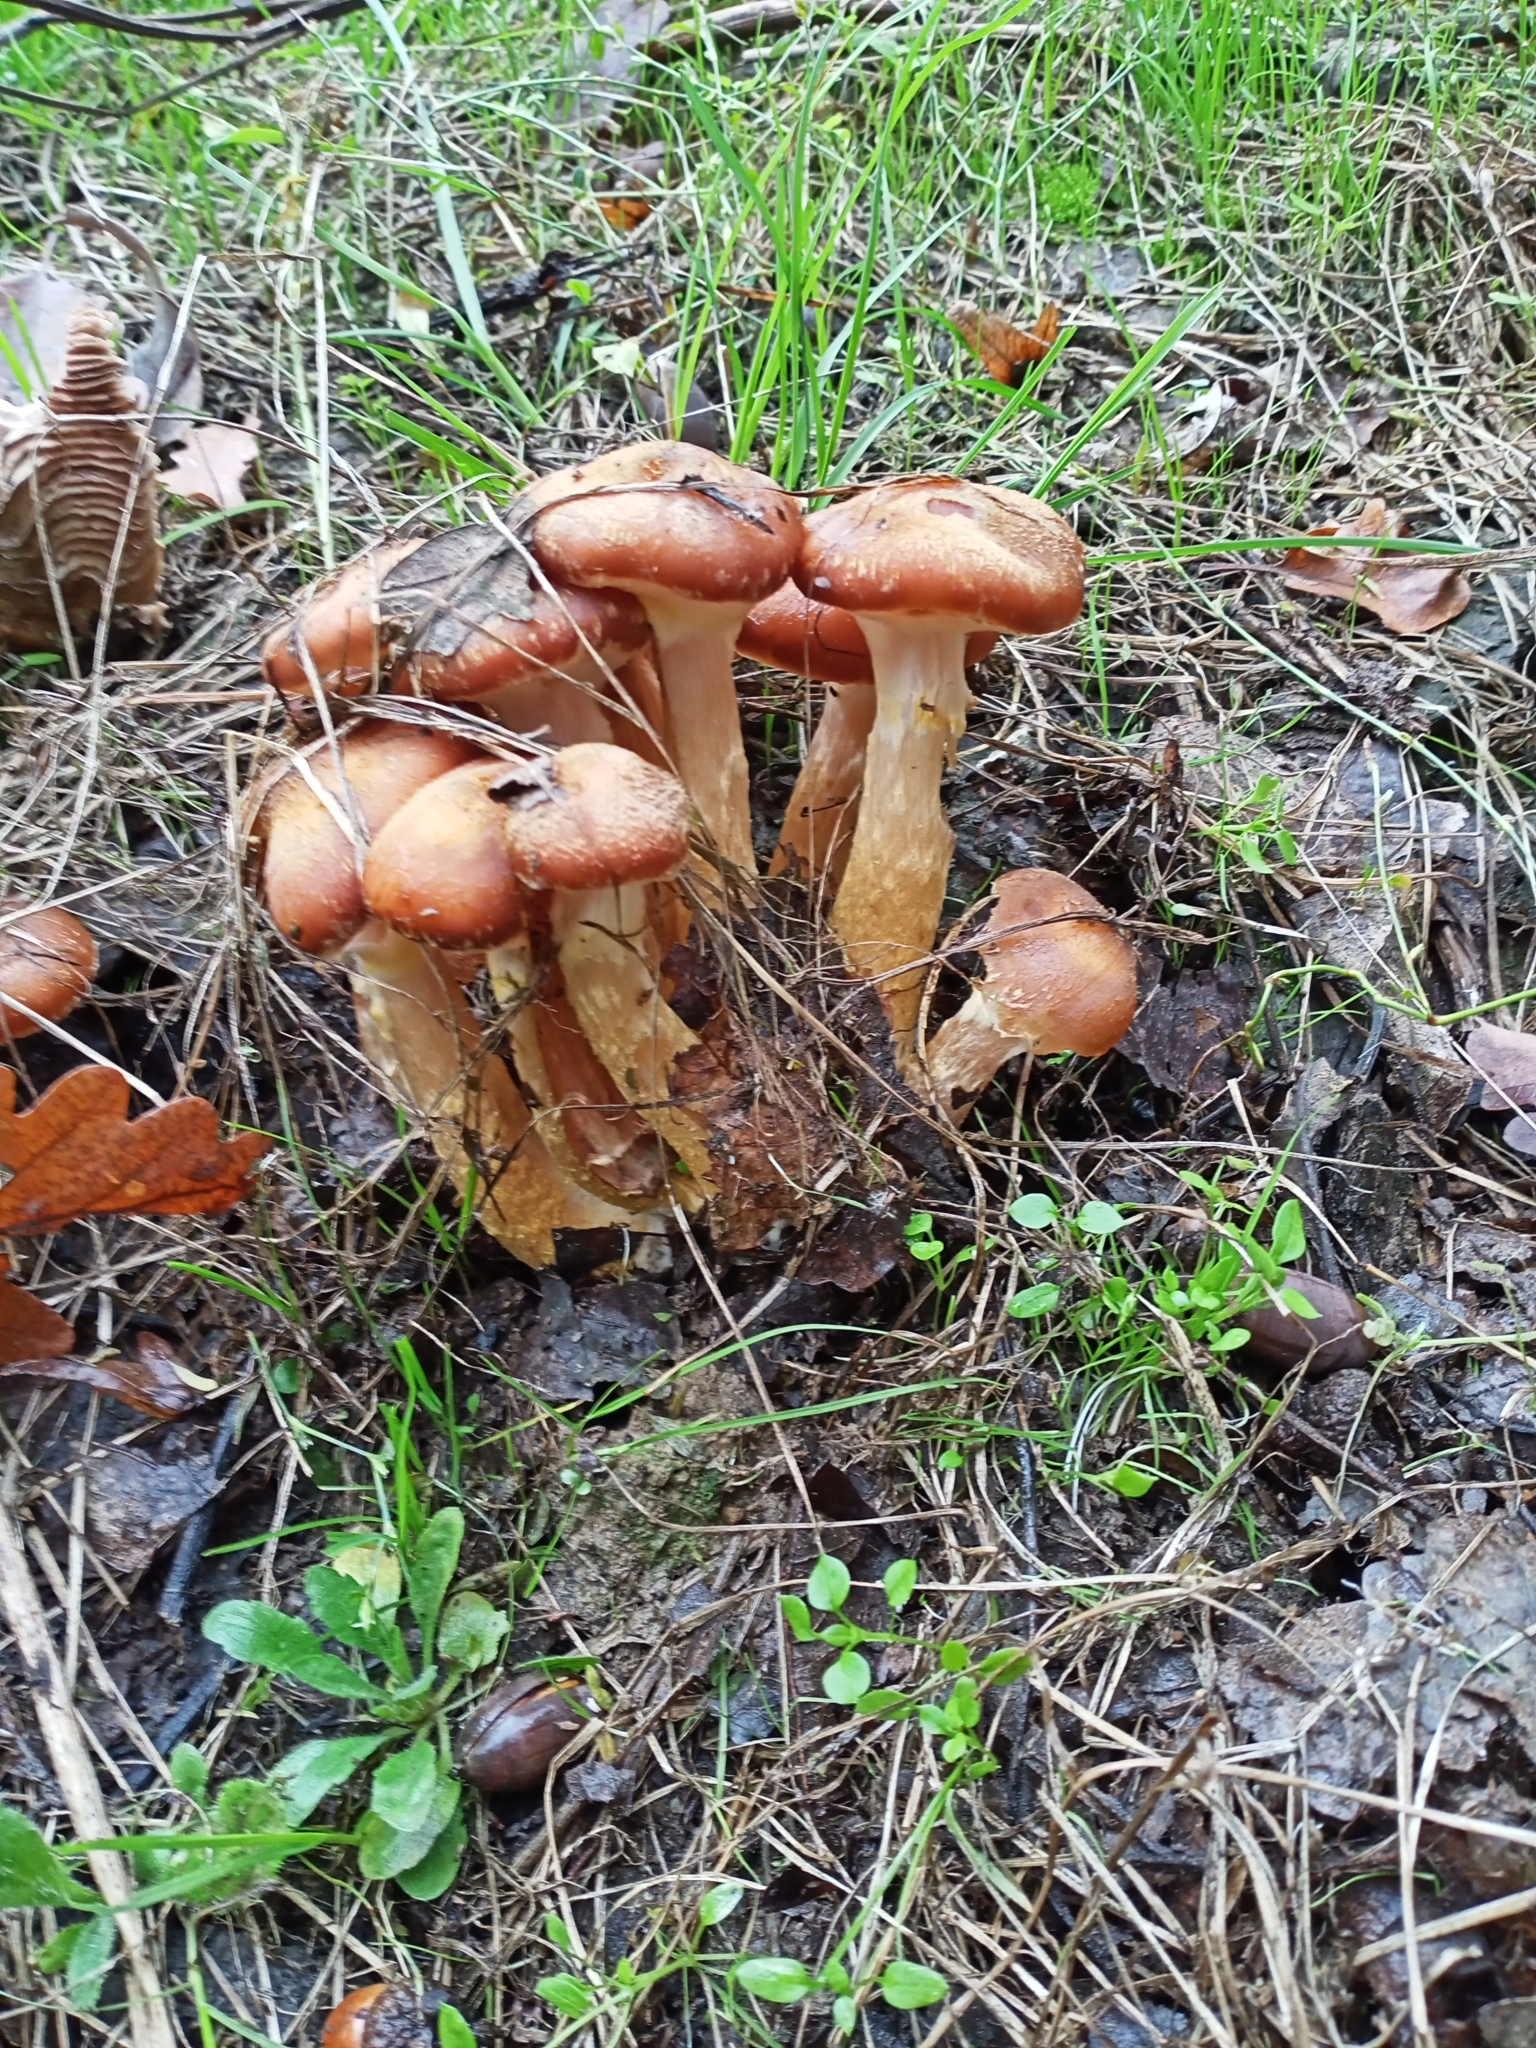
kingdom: Fungi
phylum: Basidiomycota
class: Agaricomycetes
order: Agaricales
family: Physalacriaceae
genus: Armillaria
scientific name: Armillaria mellea
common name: Honey fungus
